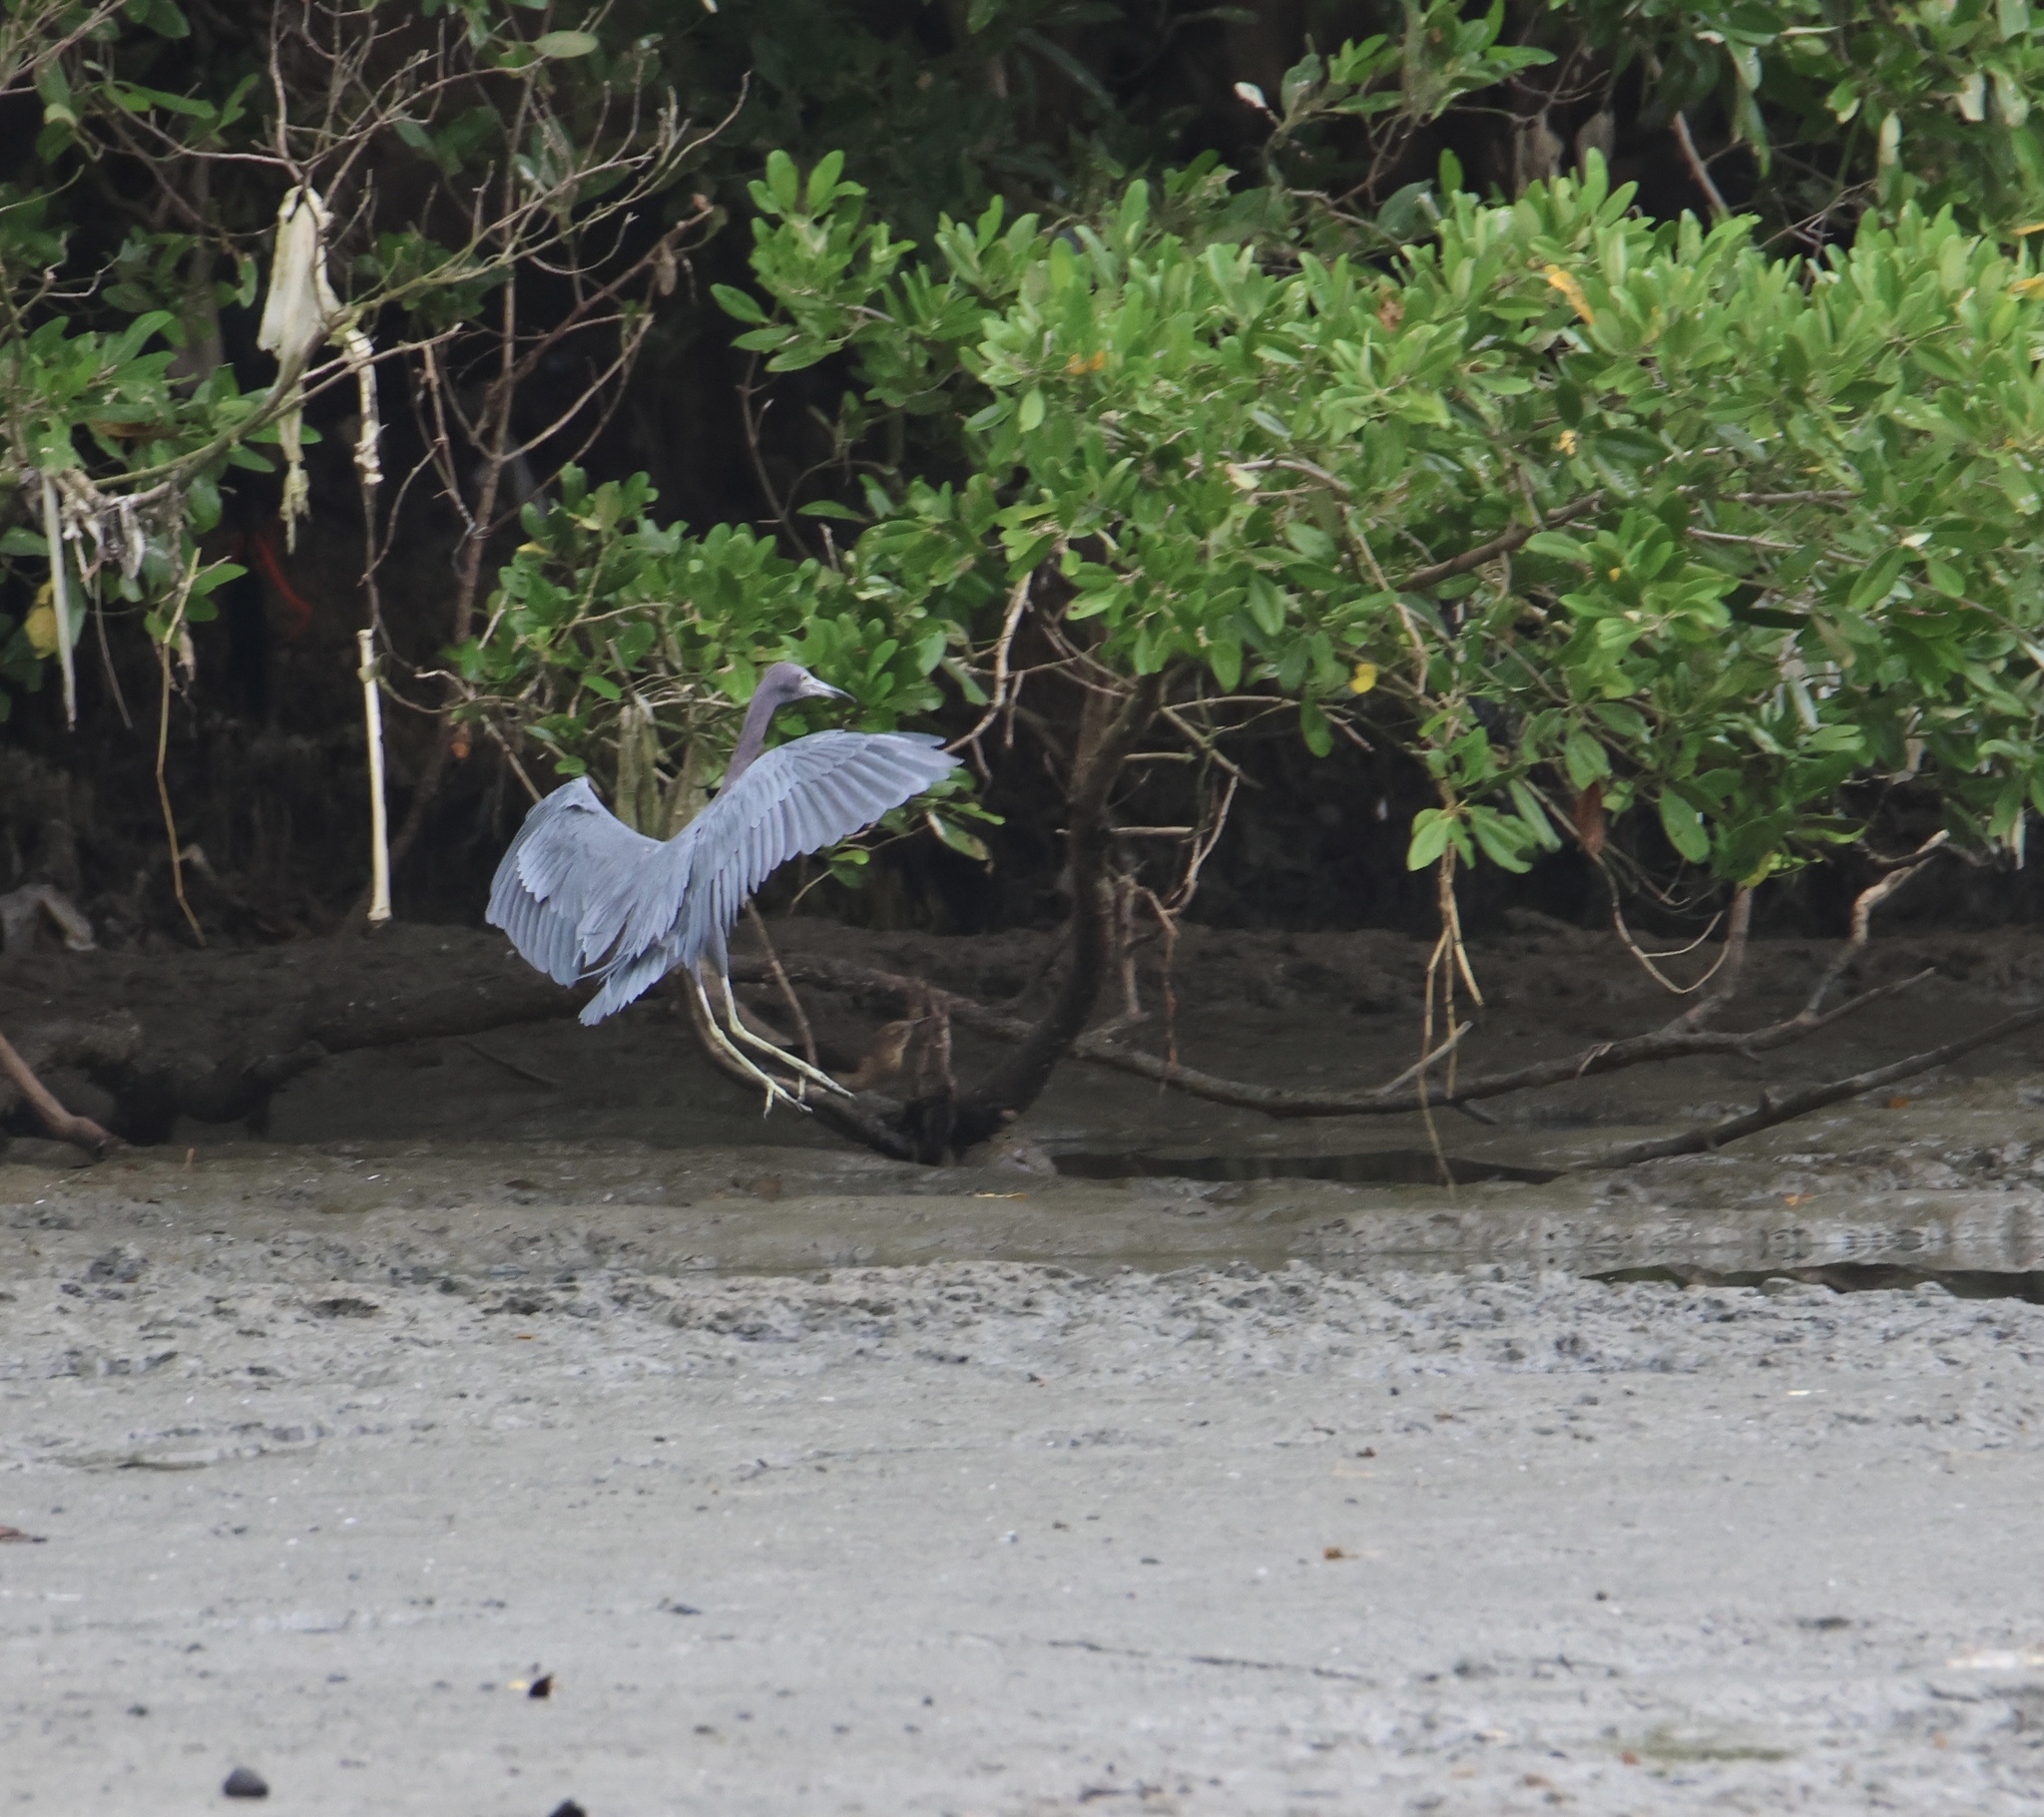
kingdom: Animalia
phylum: Chordata
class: Aves
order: Pelecaniformes
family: Ardeidae
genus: Egretta
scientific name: Egretta caerulea
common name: Little blue heron
